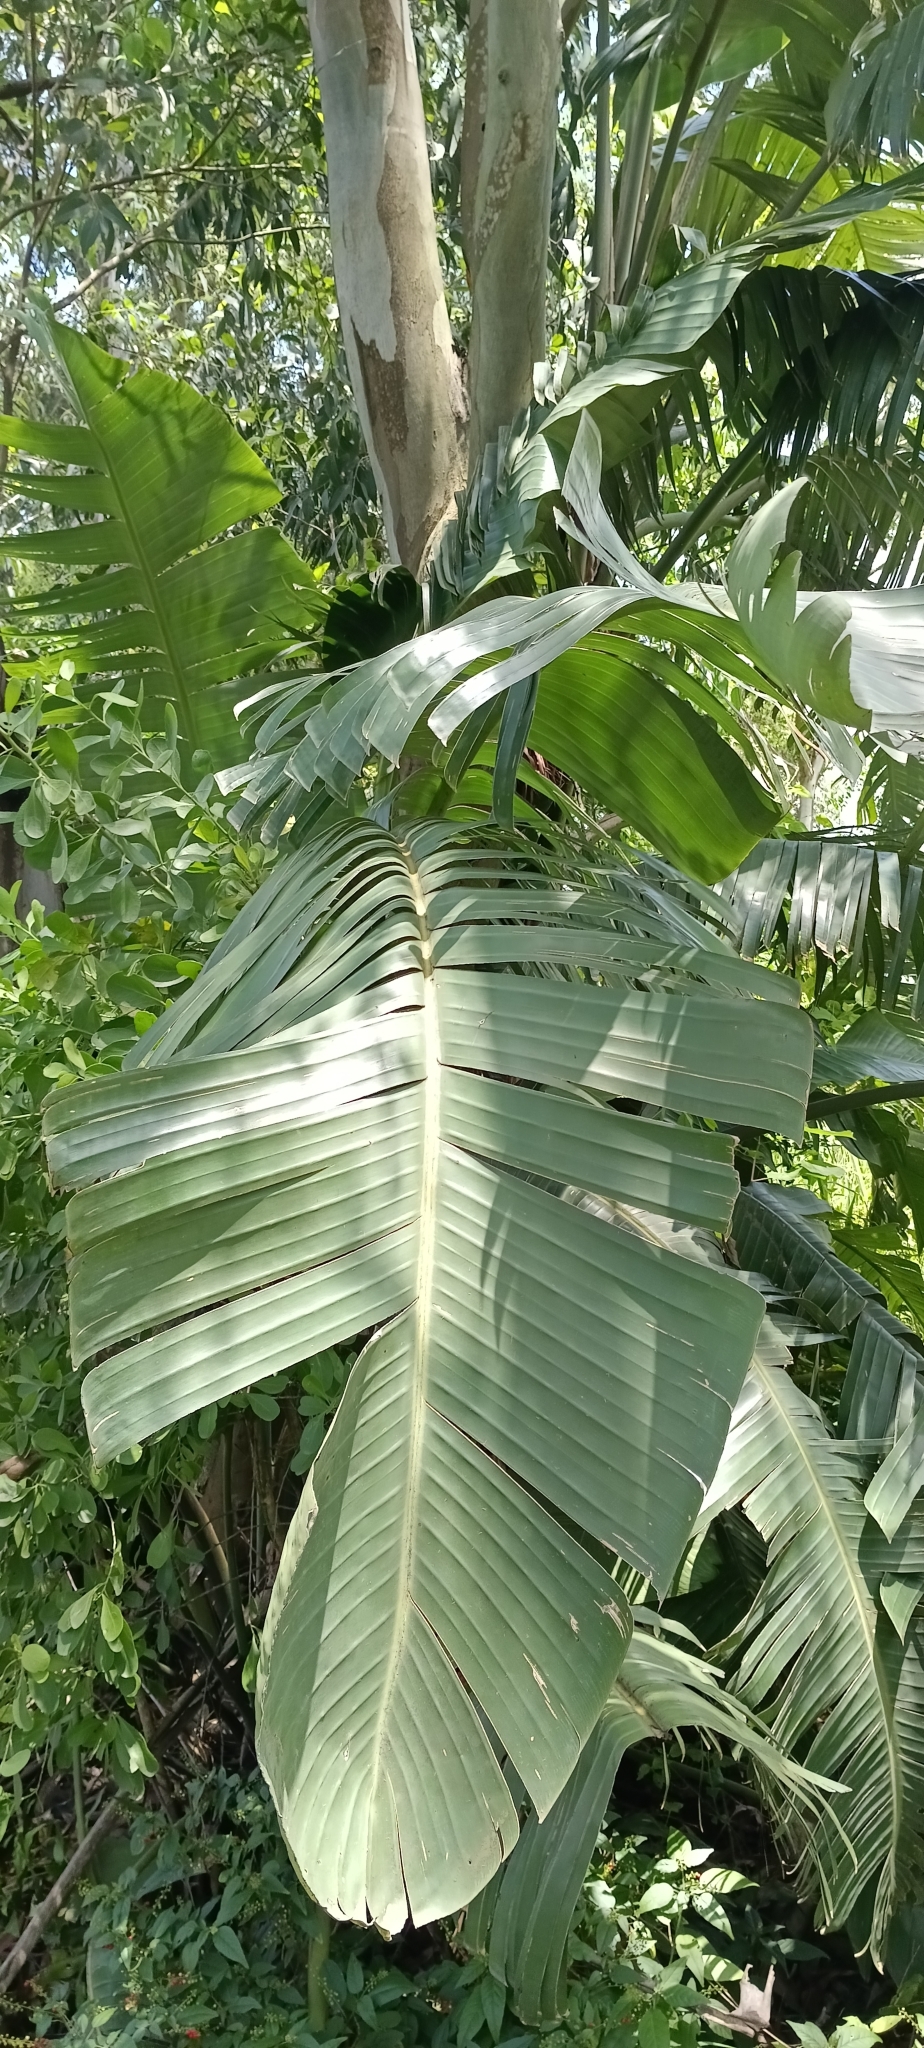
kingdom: Plantae
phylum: Tracheophyta
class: Liliopsida
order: Zingiberales
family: Strelitziaceae
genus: Strelitzia
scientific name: Strelitzia nicolai
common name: Bird-of-paradise tree
